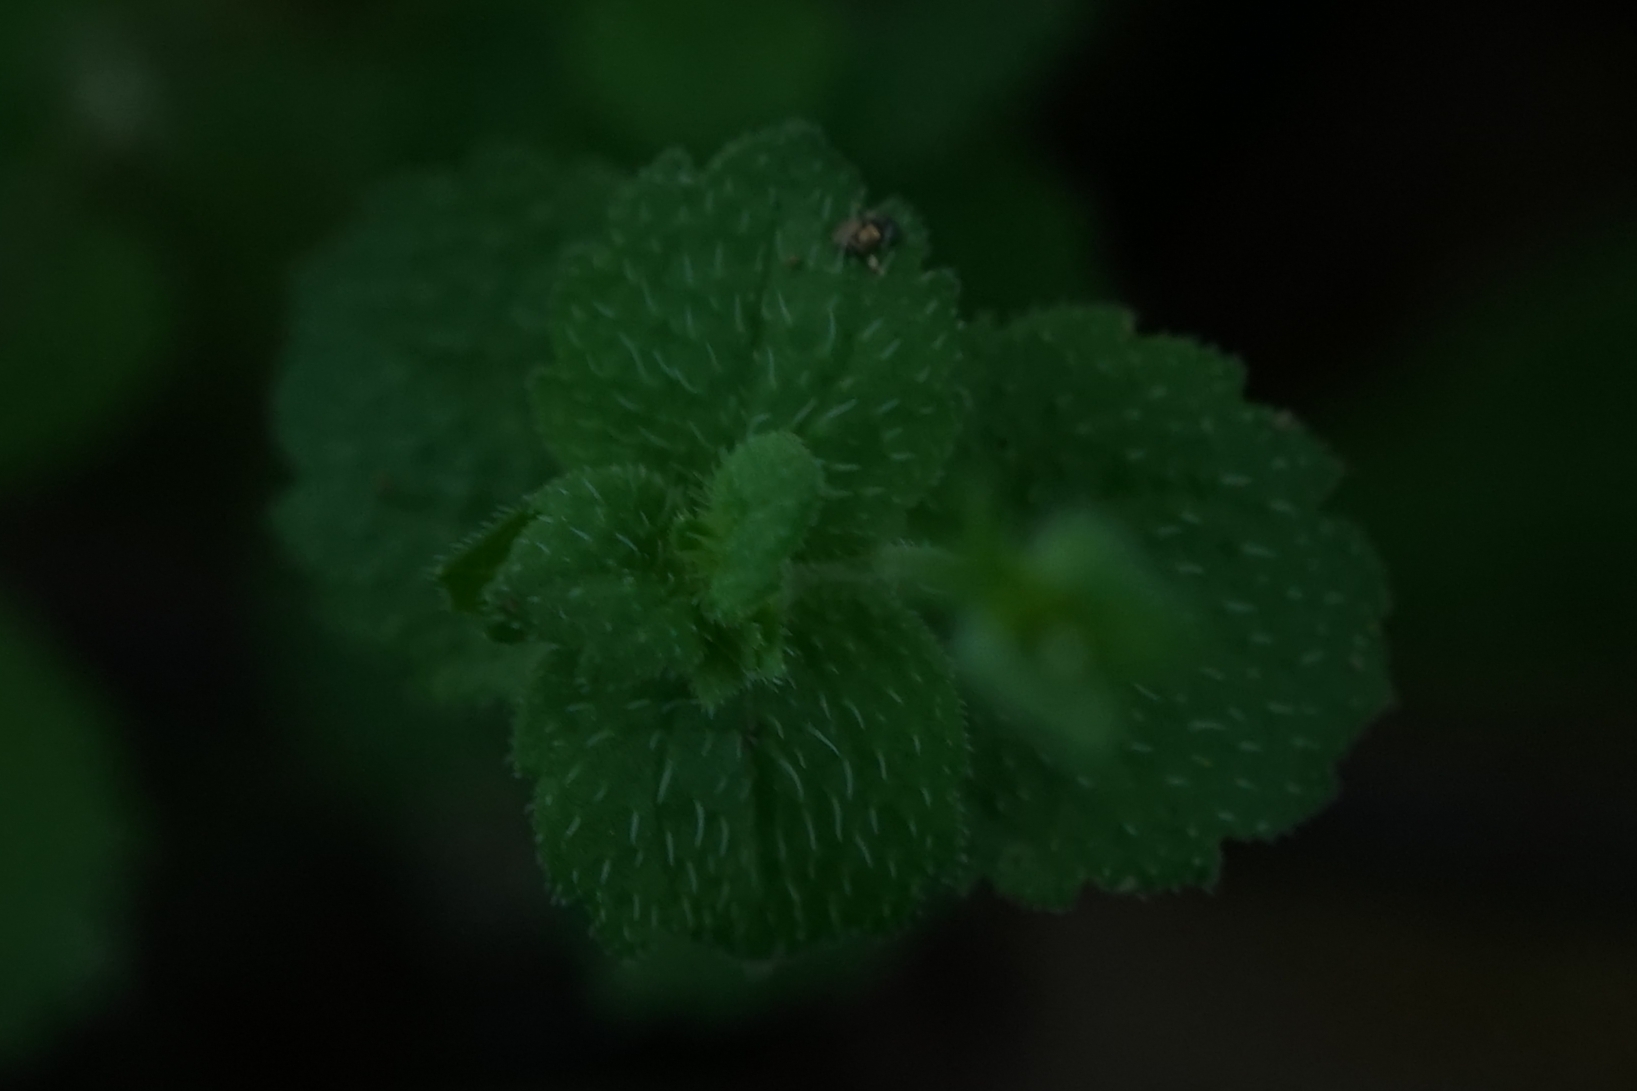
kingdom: Plantae
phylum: Tracheophyta
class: Magnoliopsida
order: Lamiales
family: Plantaginaceae
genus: Veronica
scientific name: Veronica persica
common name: Common field-speedwell
